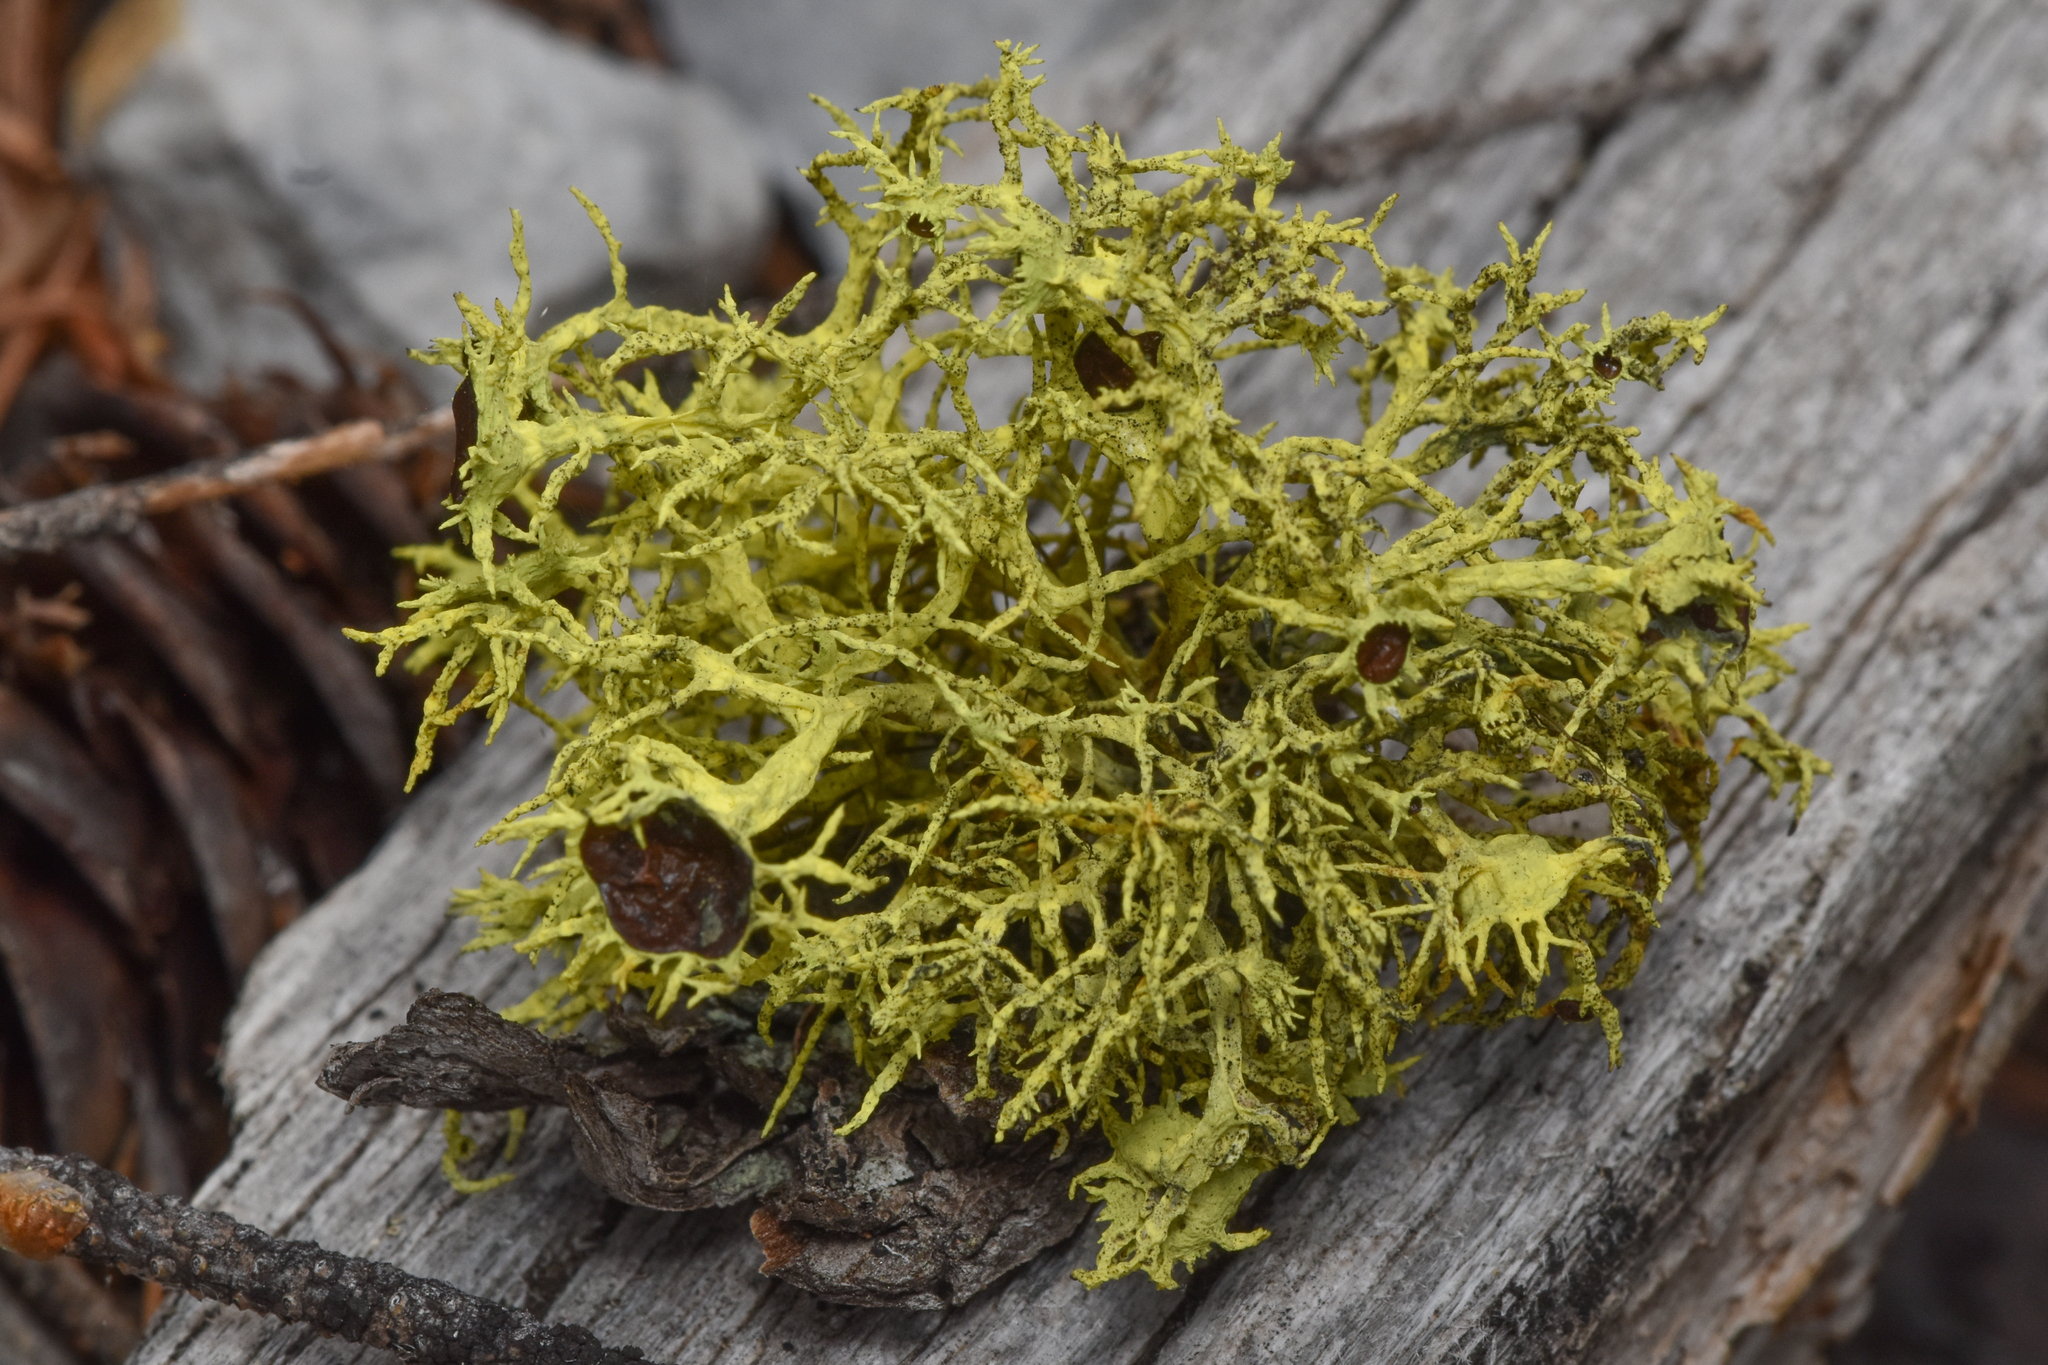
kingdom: Fungi
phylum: Ascomycota
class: Lecanoromycetes
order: Lecanorales
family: Parmeliaceae
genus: Letharia
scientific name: Letharia columbiana
